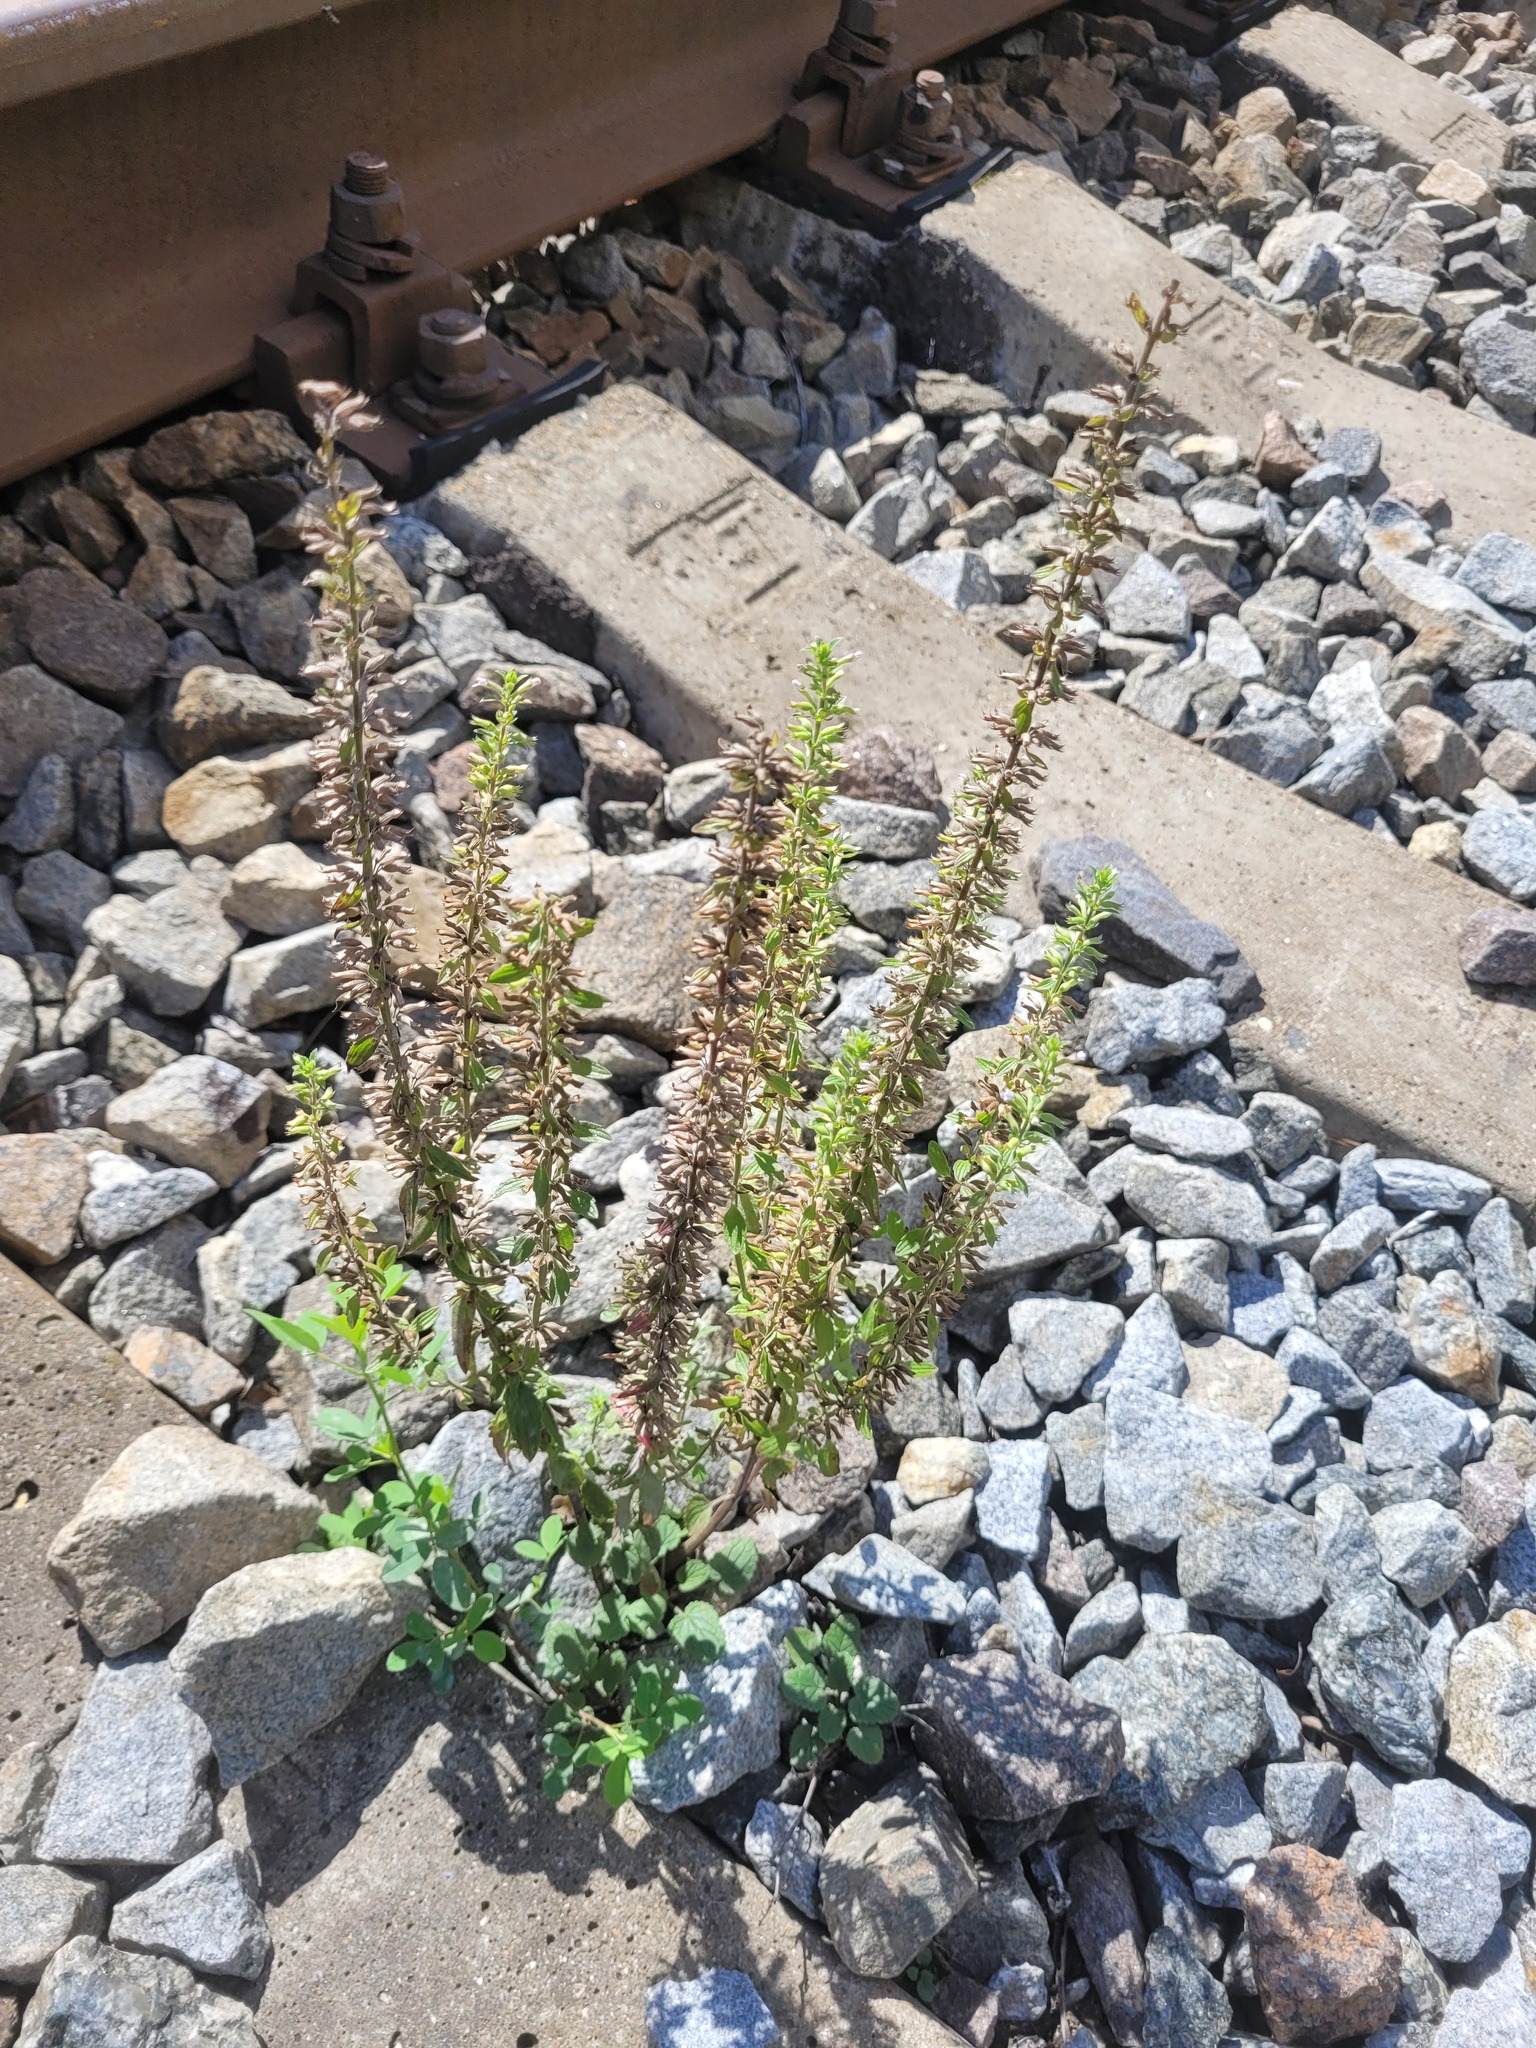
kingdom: Plantae
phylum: Tracheophyta
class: Magnoliopsida
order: Lamiales
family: Lamiaceae
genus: Dracocephalum
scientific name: Dracocephalum thymiflorum
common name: Thymeleaf dragonhead
